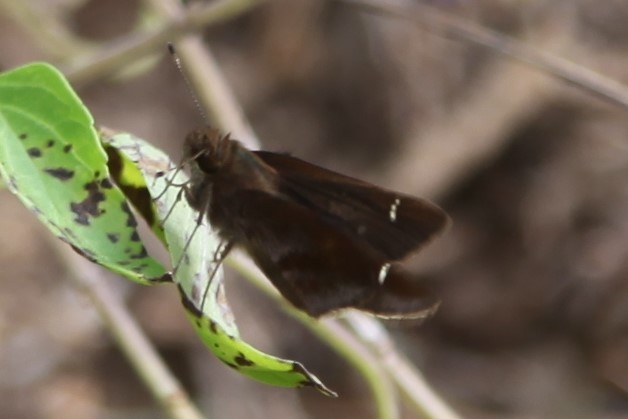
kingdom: Animalia
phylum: Arthropoda
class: Insecta
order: Lepidoptera
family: Hesperiidae
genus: Lerema
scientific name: Lerema accius
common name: Clouded skipper
